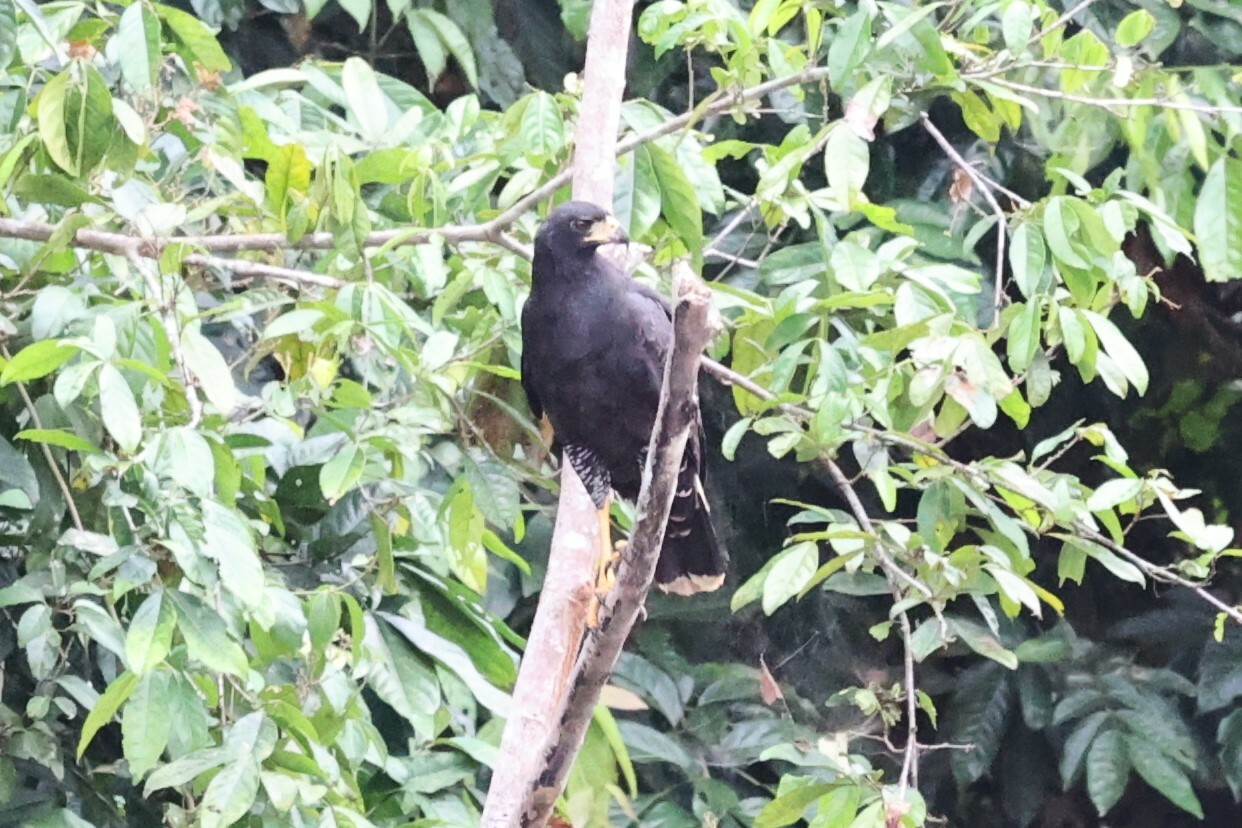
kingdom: Animalia
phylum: Chordata
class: Aves
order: Accipitriformes
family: Accipitridae
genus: Buteogallus
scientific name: Buteogallus urubitinga
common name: Great black hawk
